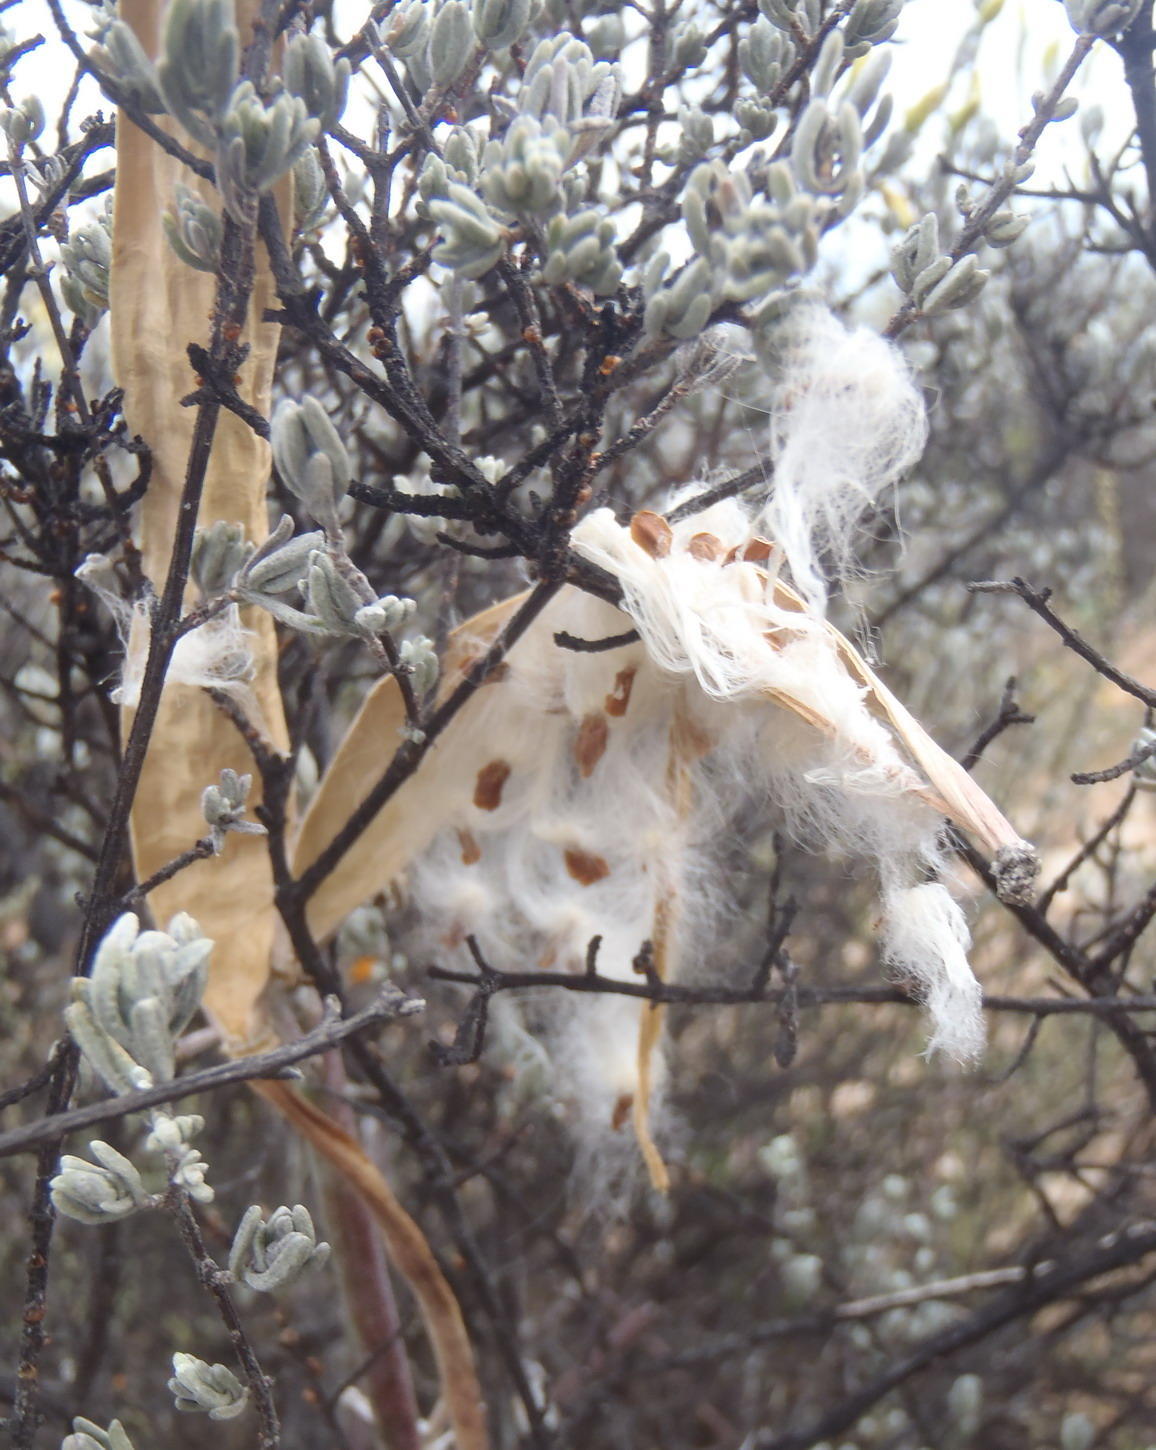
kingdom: Plantae
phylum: Tracheophyta
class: Magnoliopsida
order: Gentianales
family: Apocynaceae
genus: Cynanchum
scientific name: Cynanchum viminale
